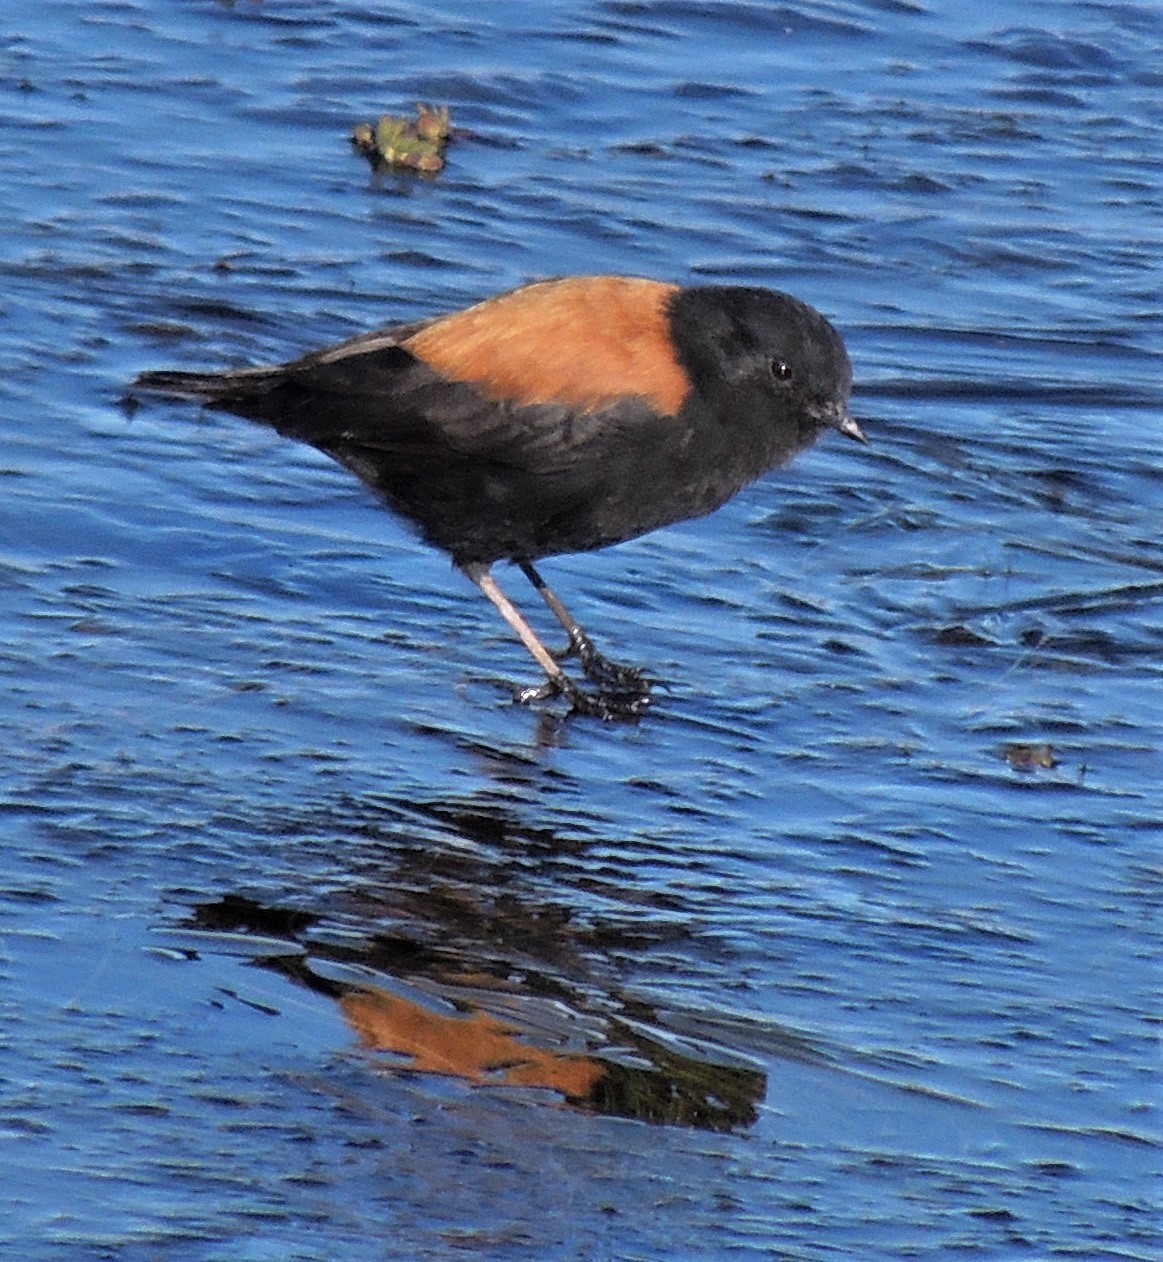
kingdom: Animalia
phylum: Chordata
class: Aves
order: Passeriformes
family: Tyrannidae
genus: Lessonia
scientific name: Lessonia oreas
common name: Andean negrito
